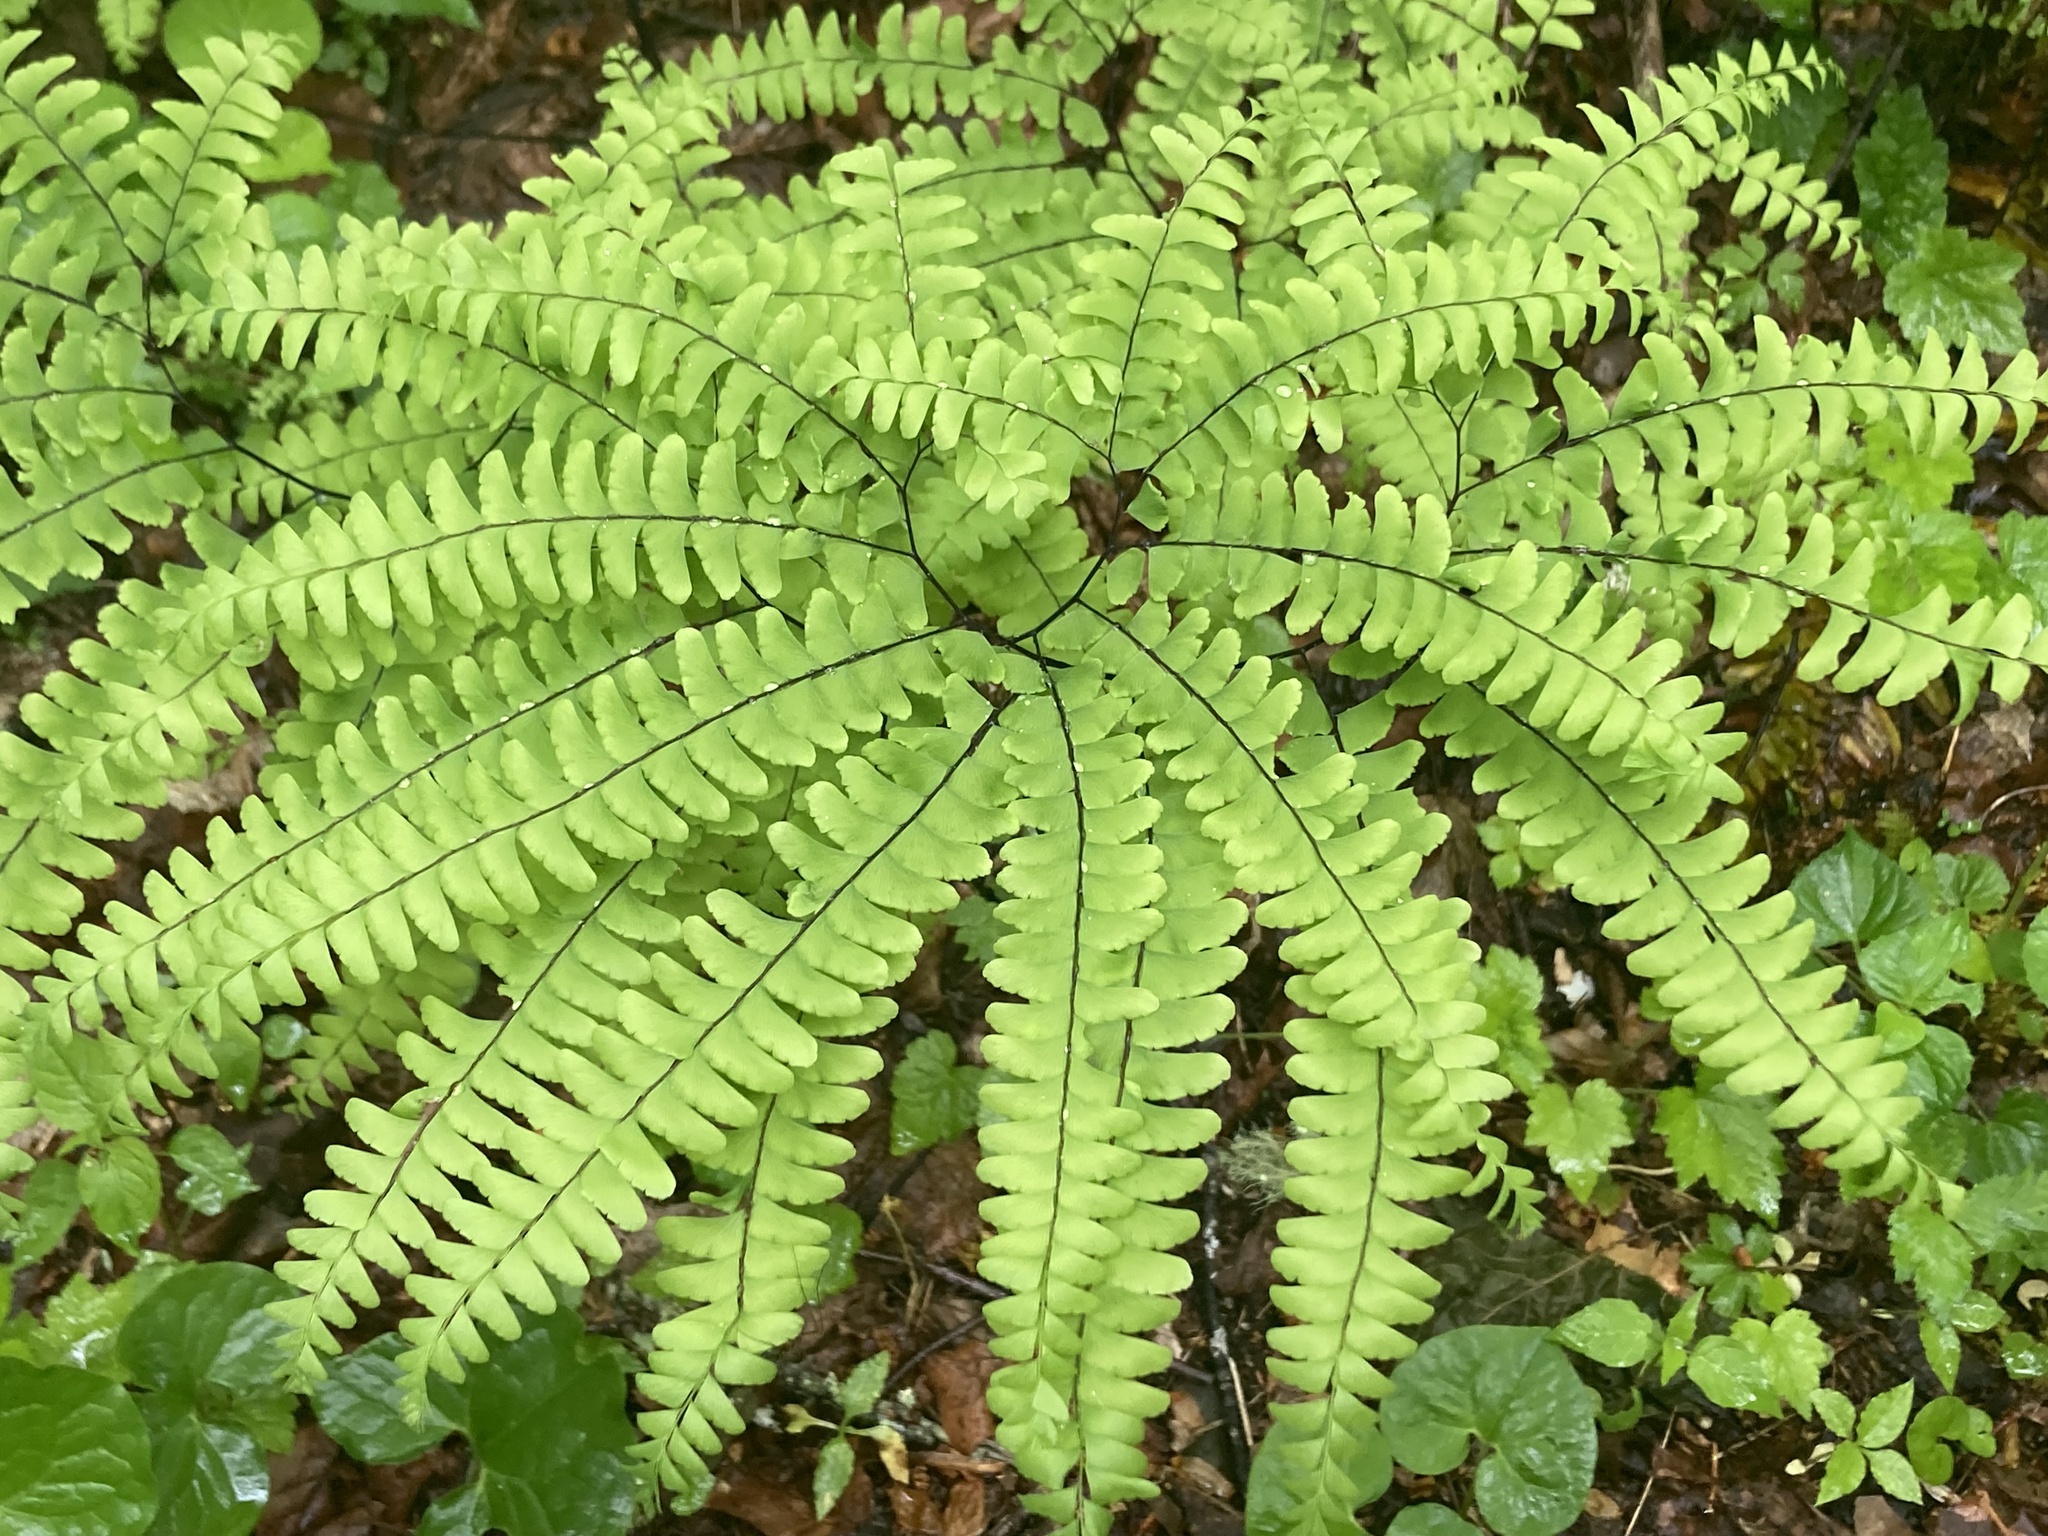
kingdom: Plantae
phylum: Tracheophyta
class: Polypodiopsida
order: Polypodiales
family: Pteridaceae
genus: Adiantum
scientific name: Adiantum pedatum
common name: Five-finger fern
